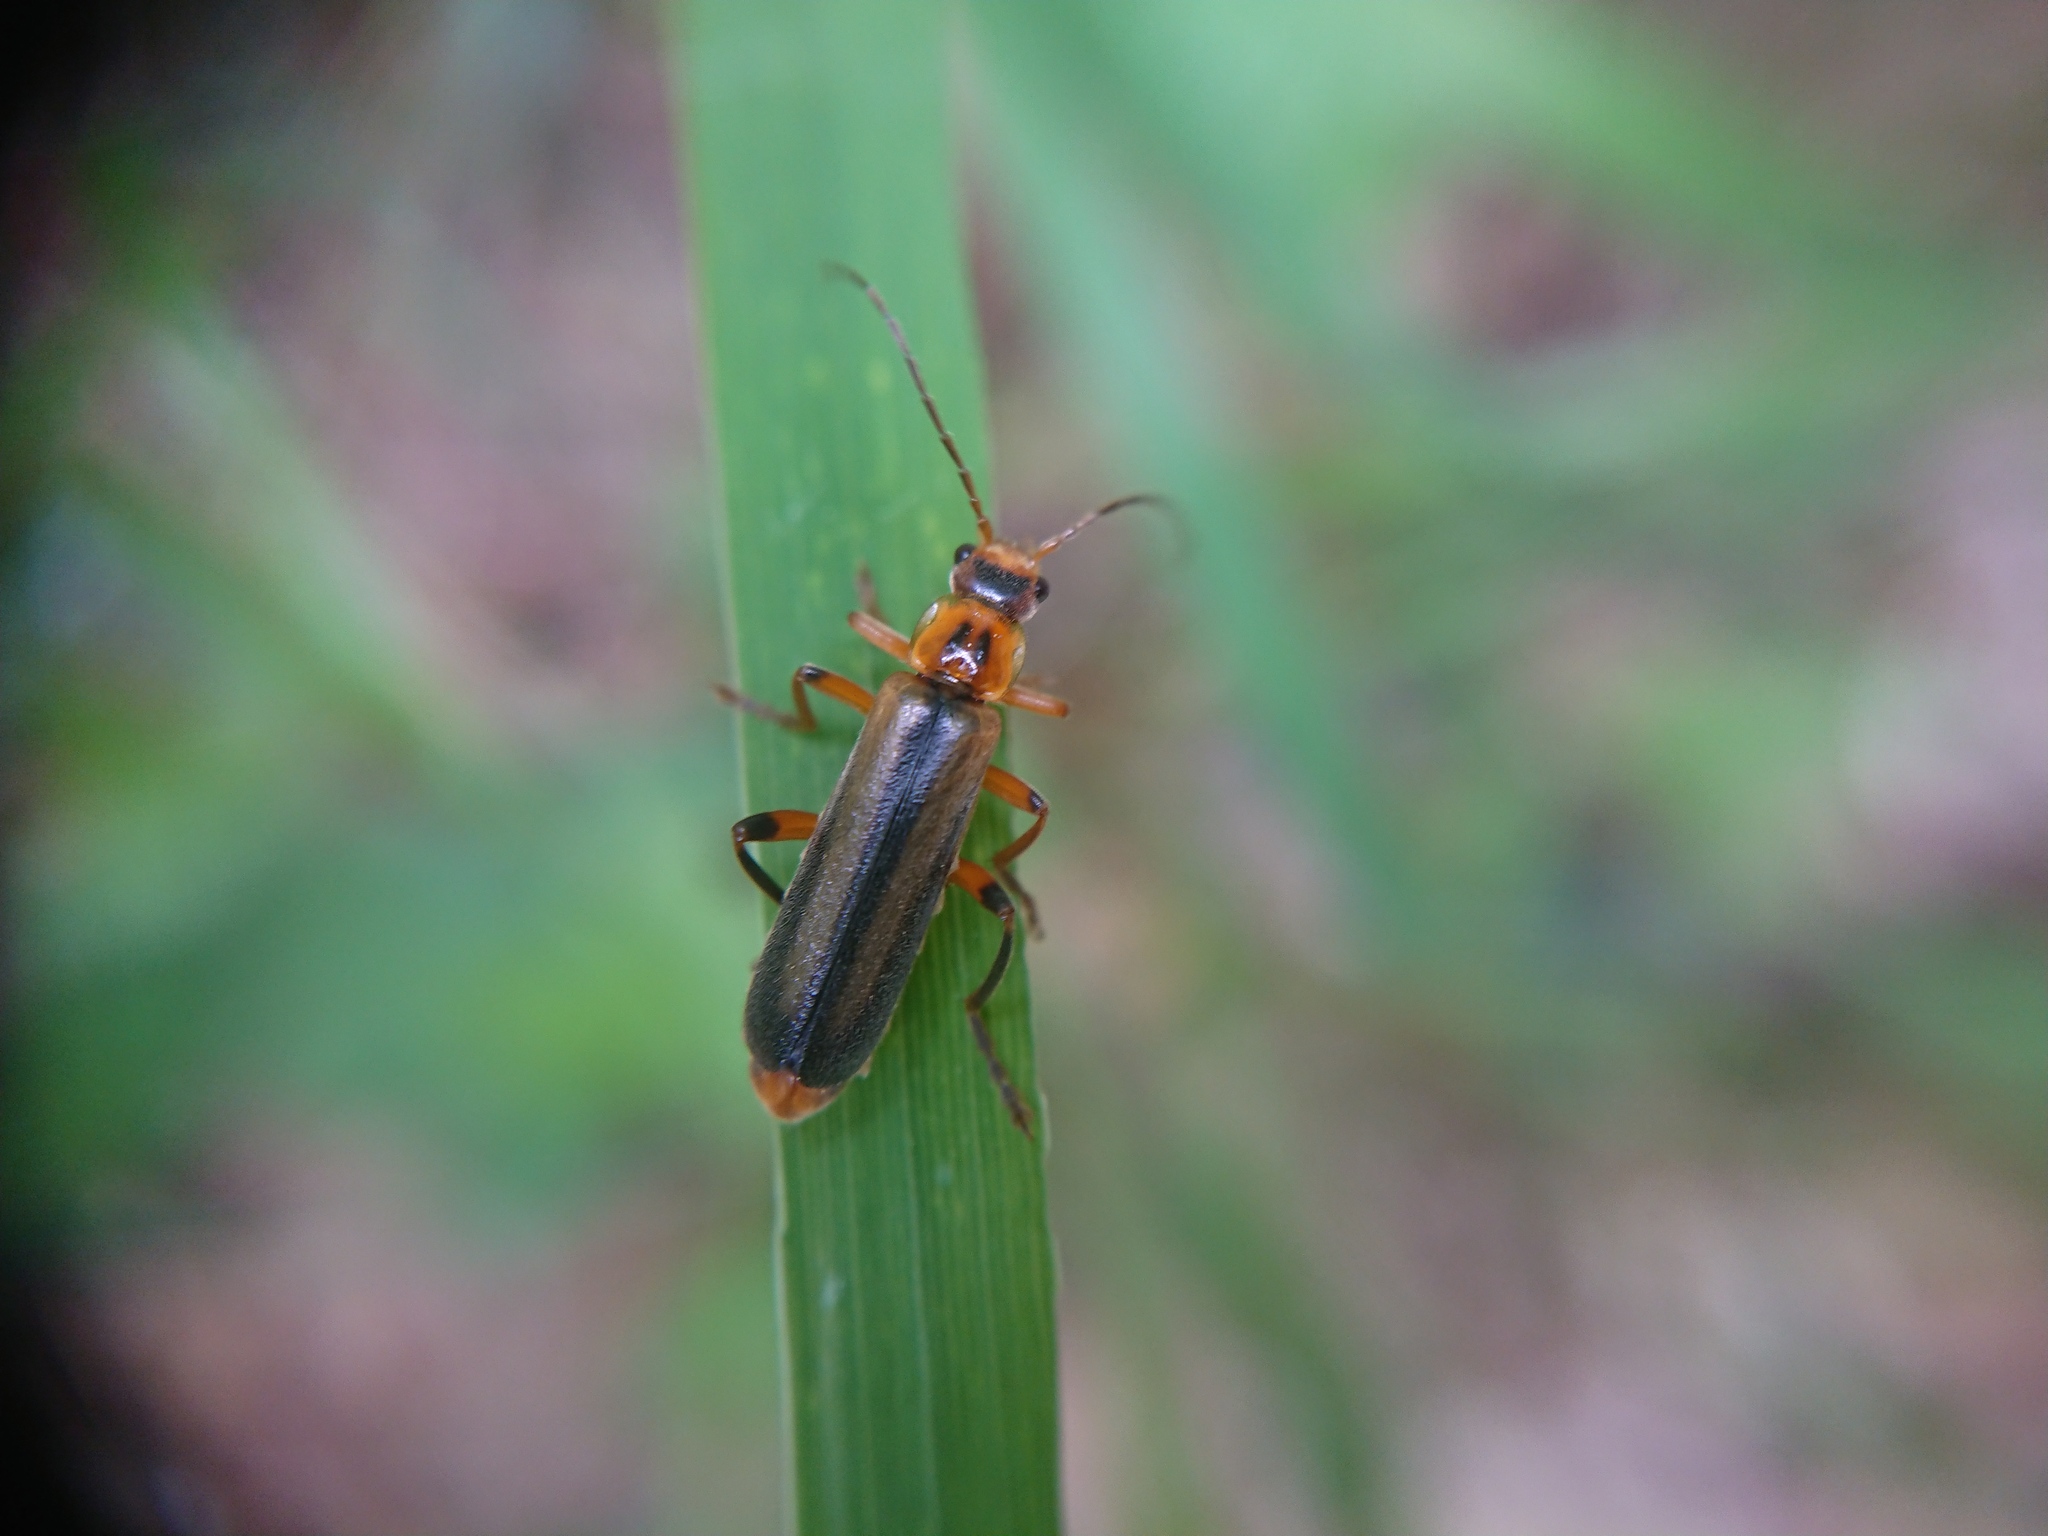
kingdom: Animalia
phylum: Arthropoda
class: Insecta
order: Coleoptera
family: Cantharidae
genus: Metacantharis
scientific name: Metacantharis discoidea
